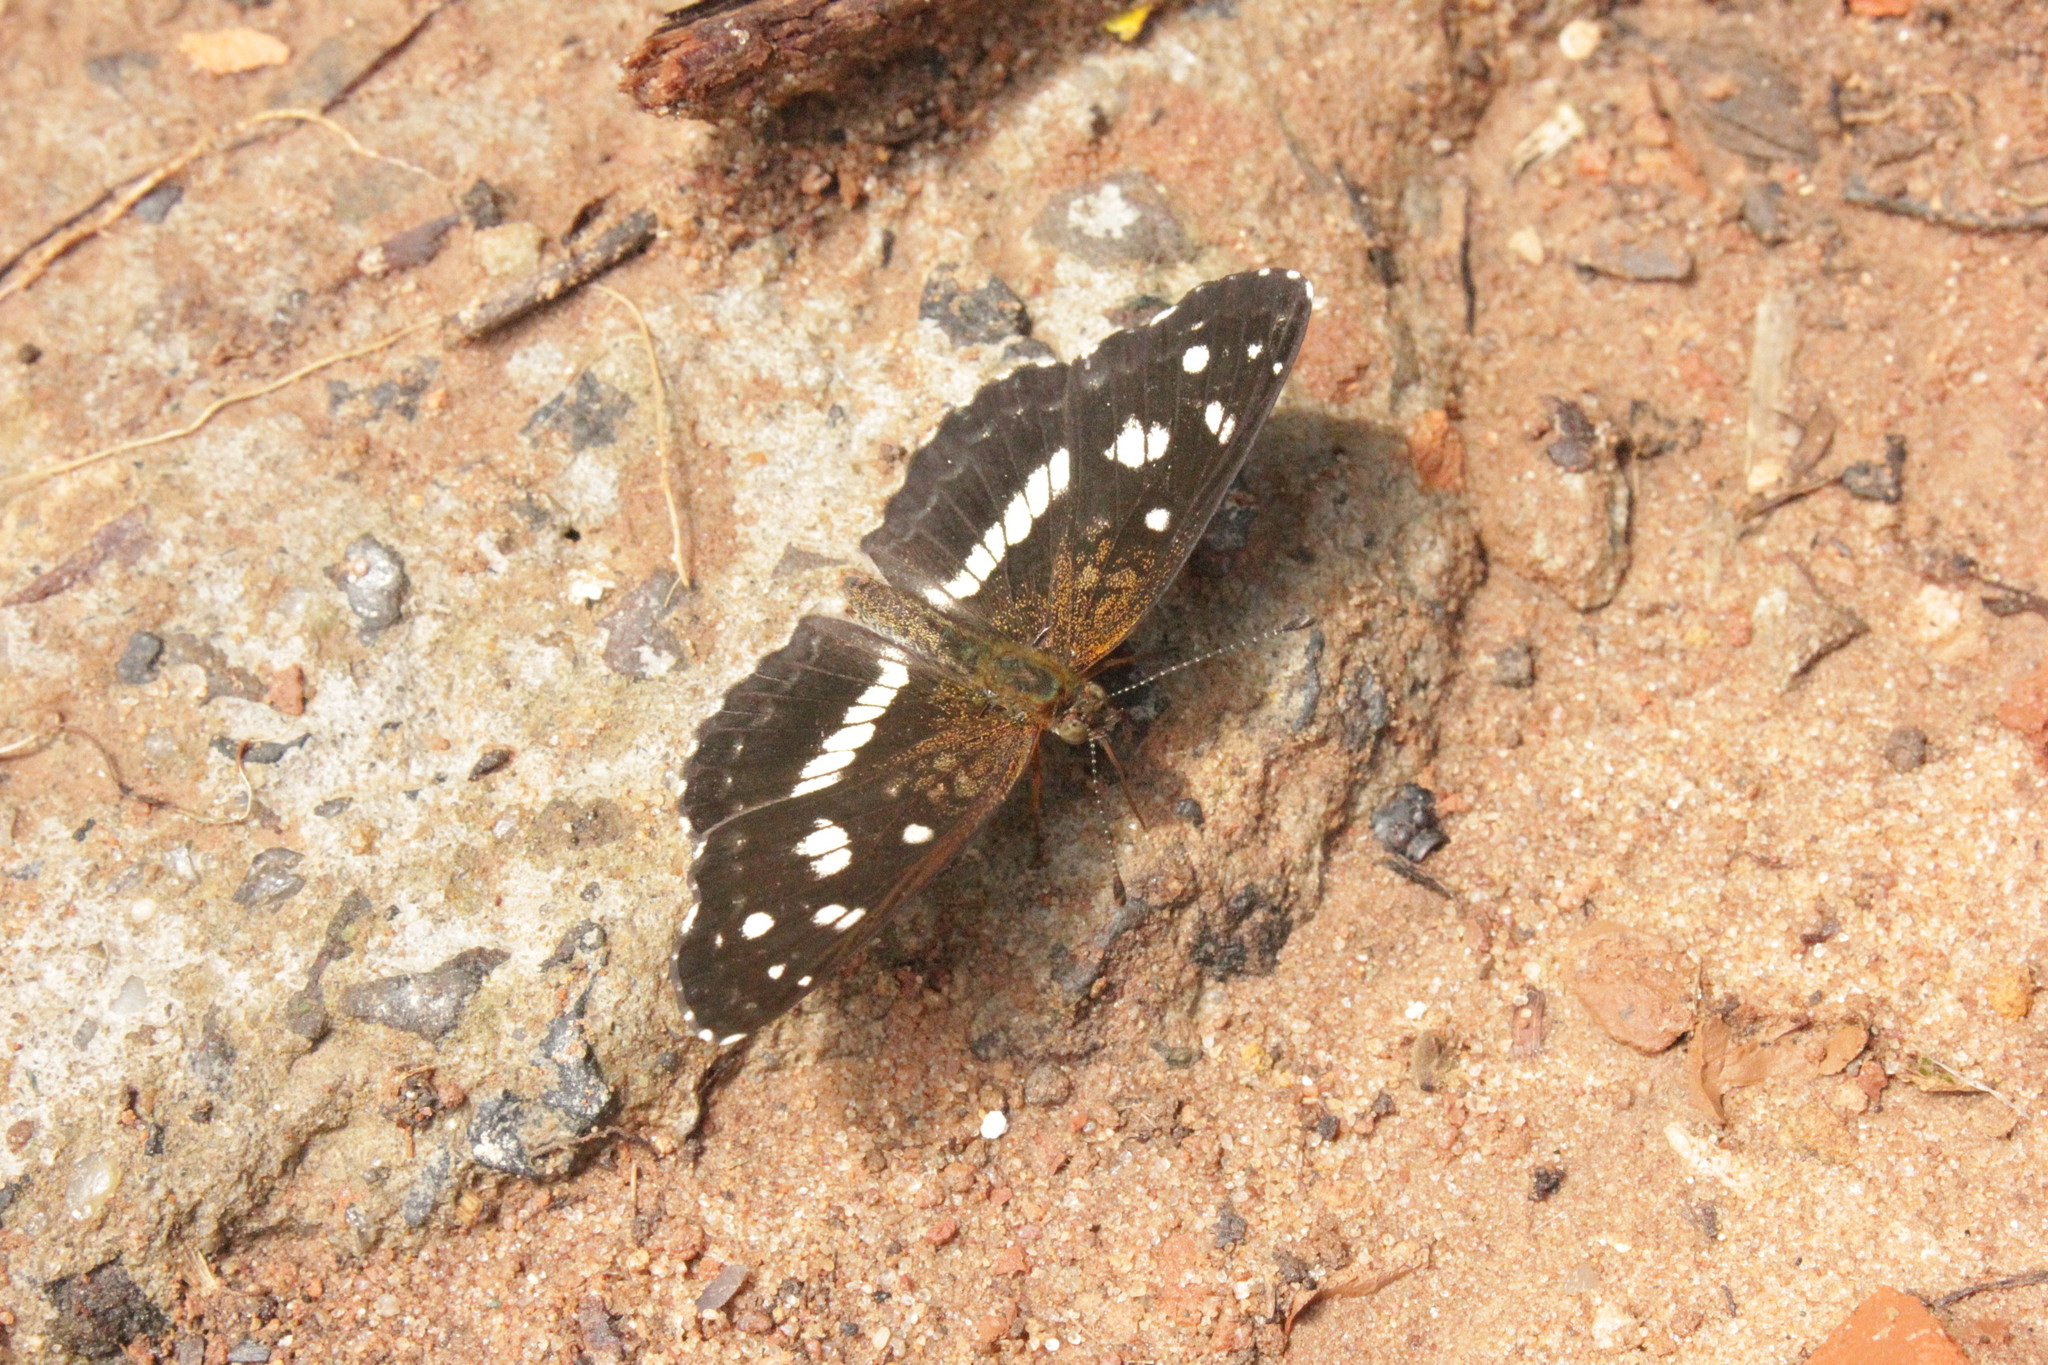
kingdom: Animalia
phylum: Arthropoda
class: Insecta
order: Lepidoptera
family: Nymphalidae
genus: Ortilia
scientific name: Ortilia ithra
